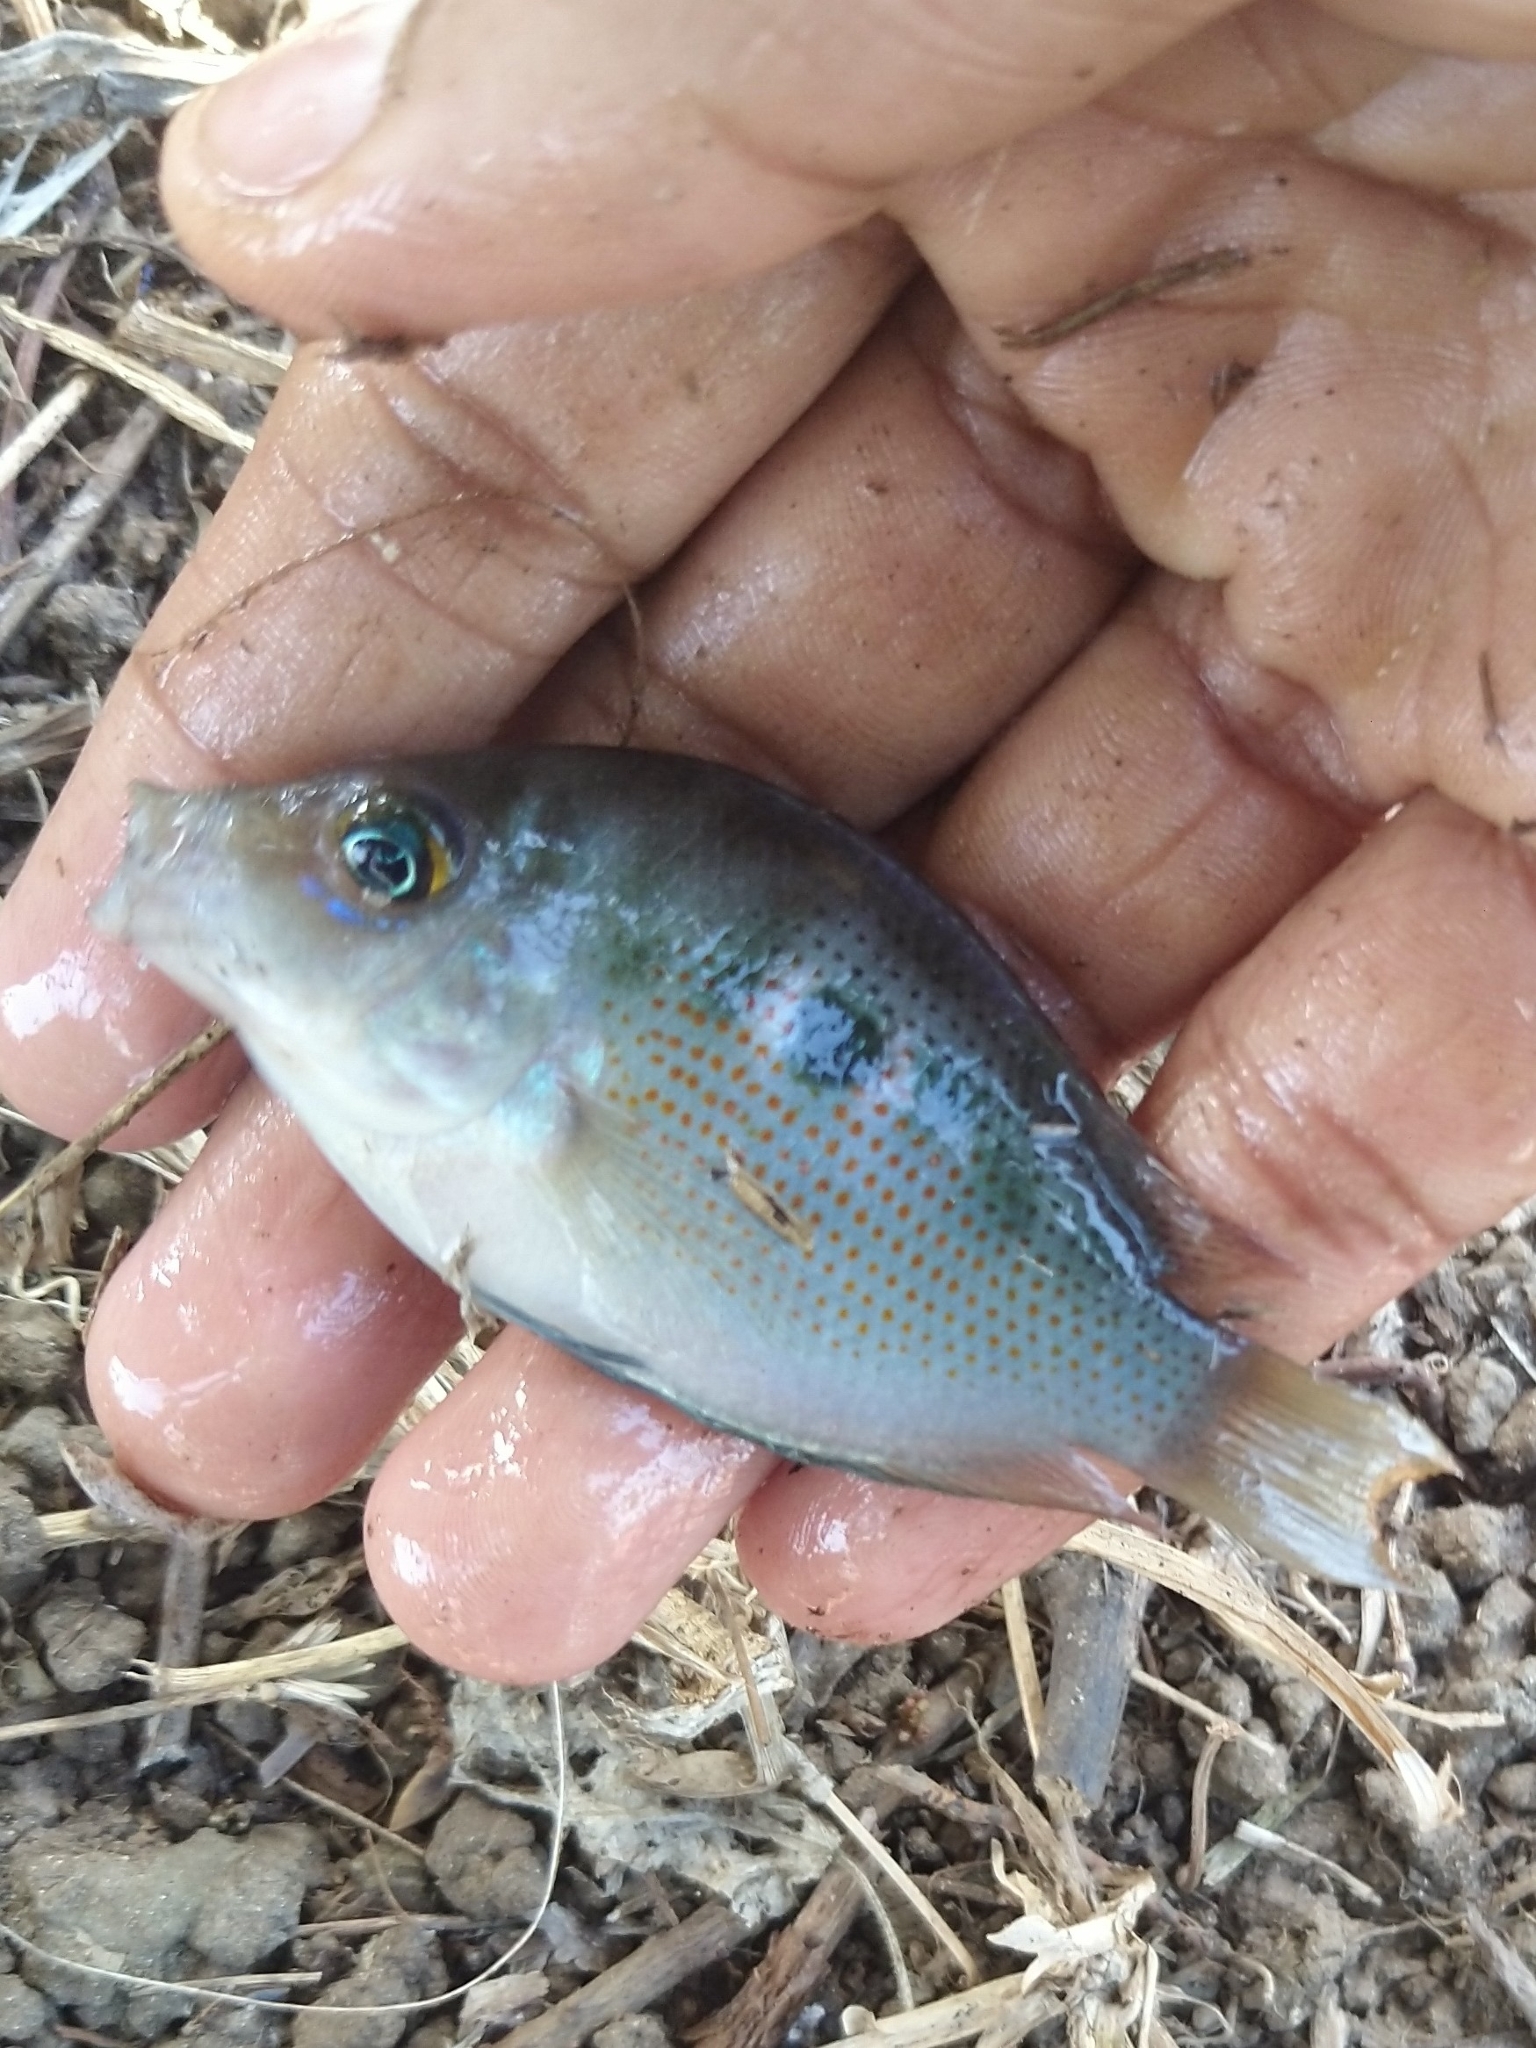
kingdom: Animalia
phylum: Chordata
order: Perciformes
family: Cichlidae
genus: Etroplus
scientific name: Etroplus maculatus
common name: Orange chromide
